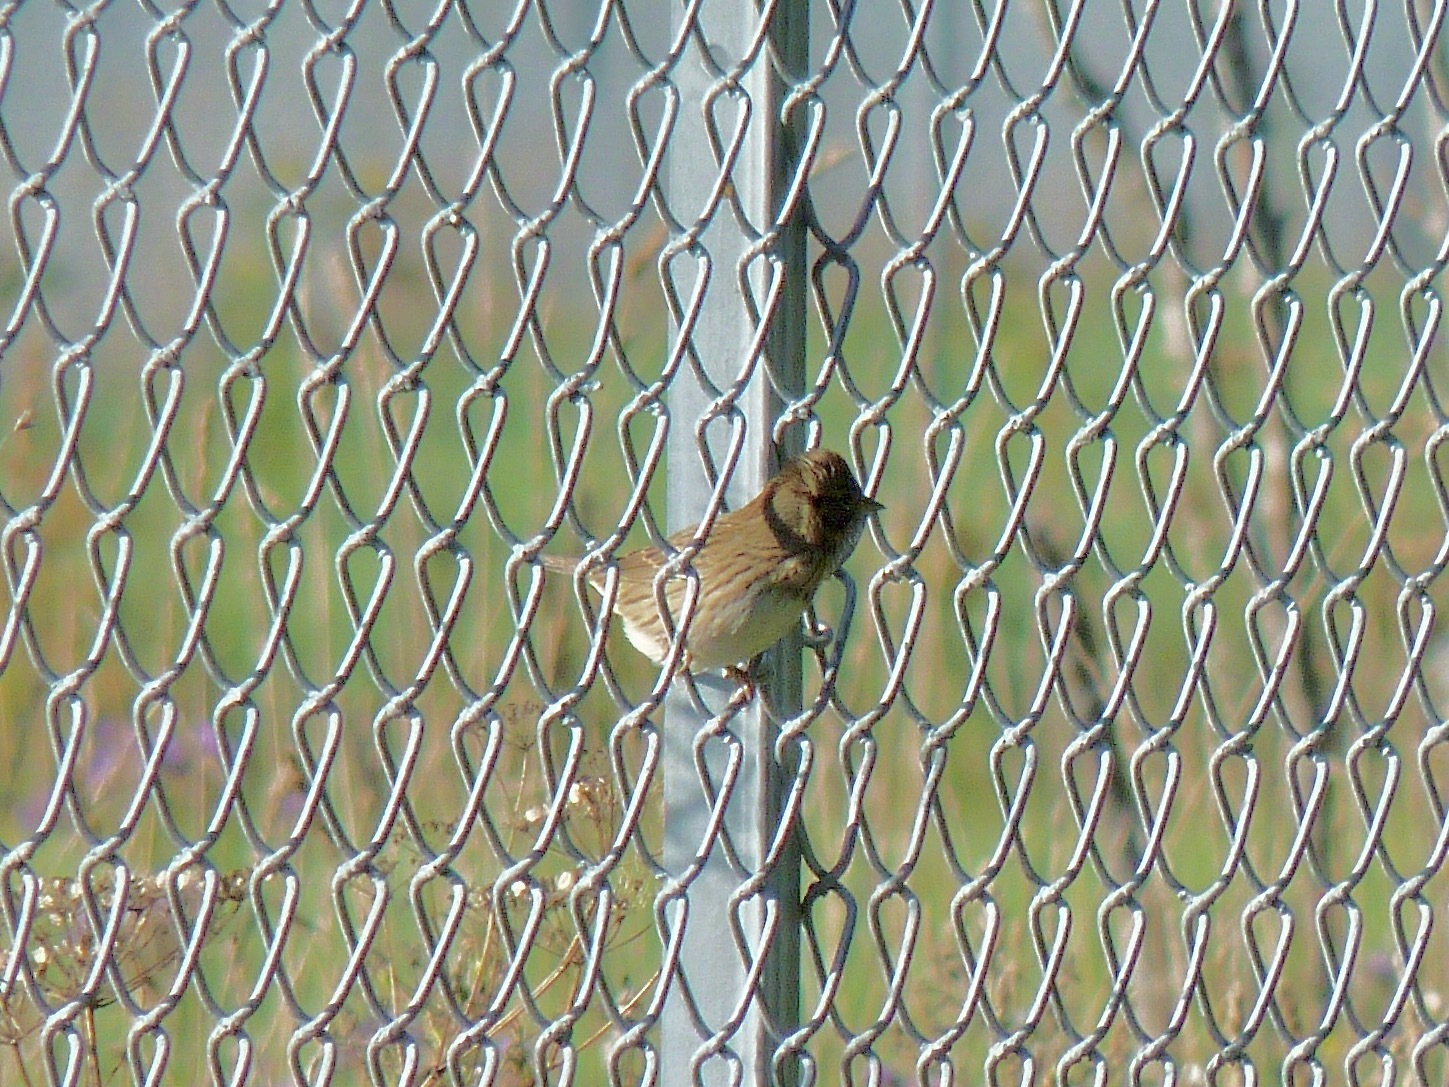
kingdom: Animalia
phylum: Chordata
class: Aves
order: Passeriformes
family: Passerellidae
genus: Melospiza
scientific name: Melospiza lincolnii
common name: Lincoln's sparrow
